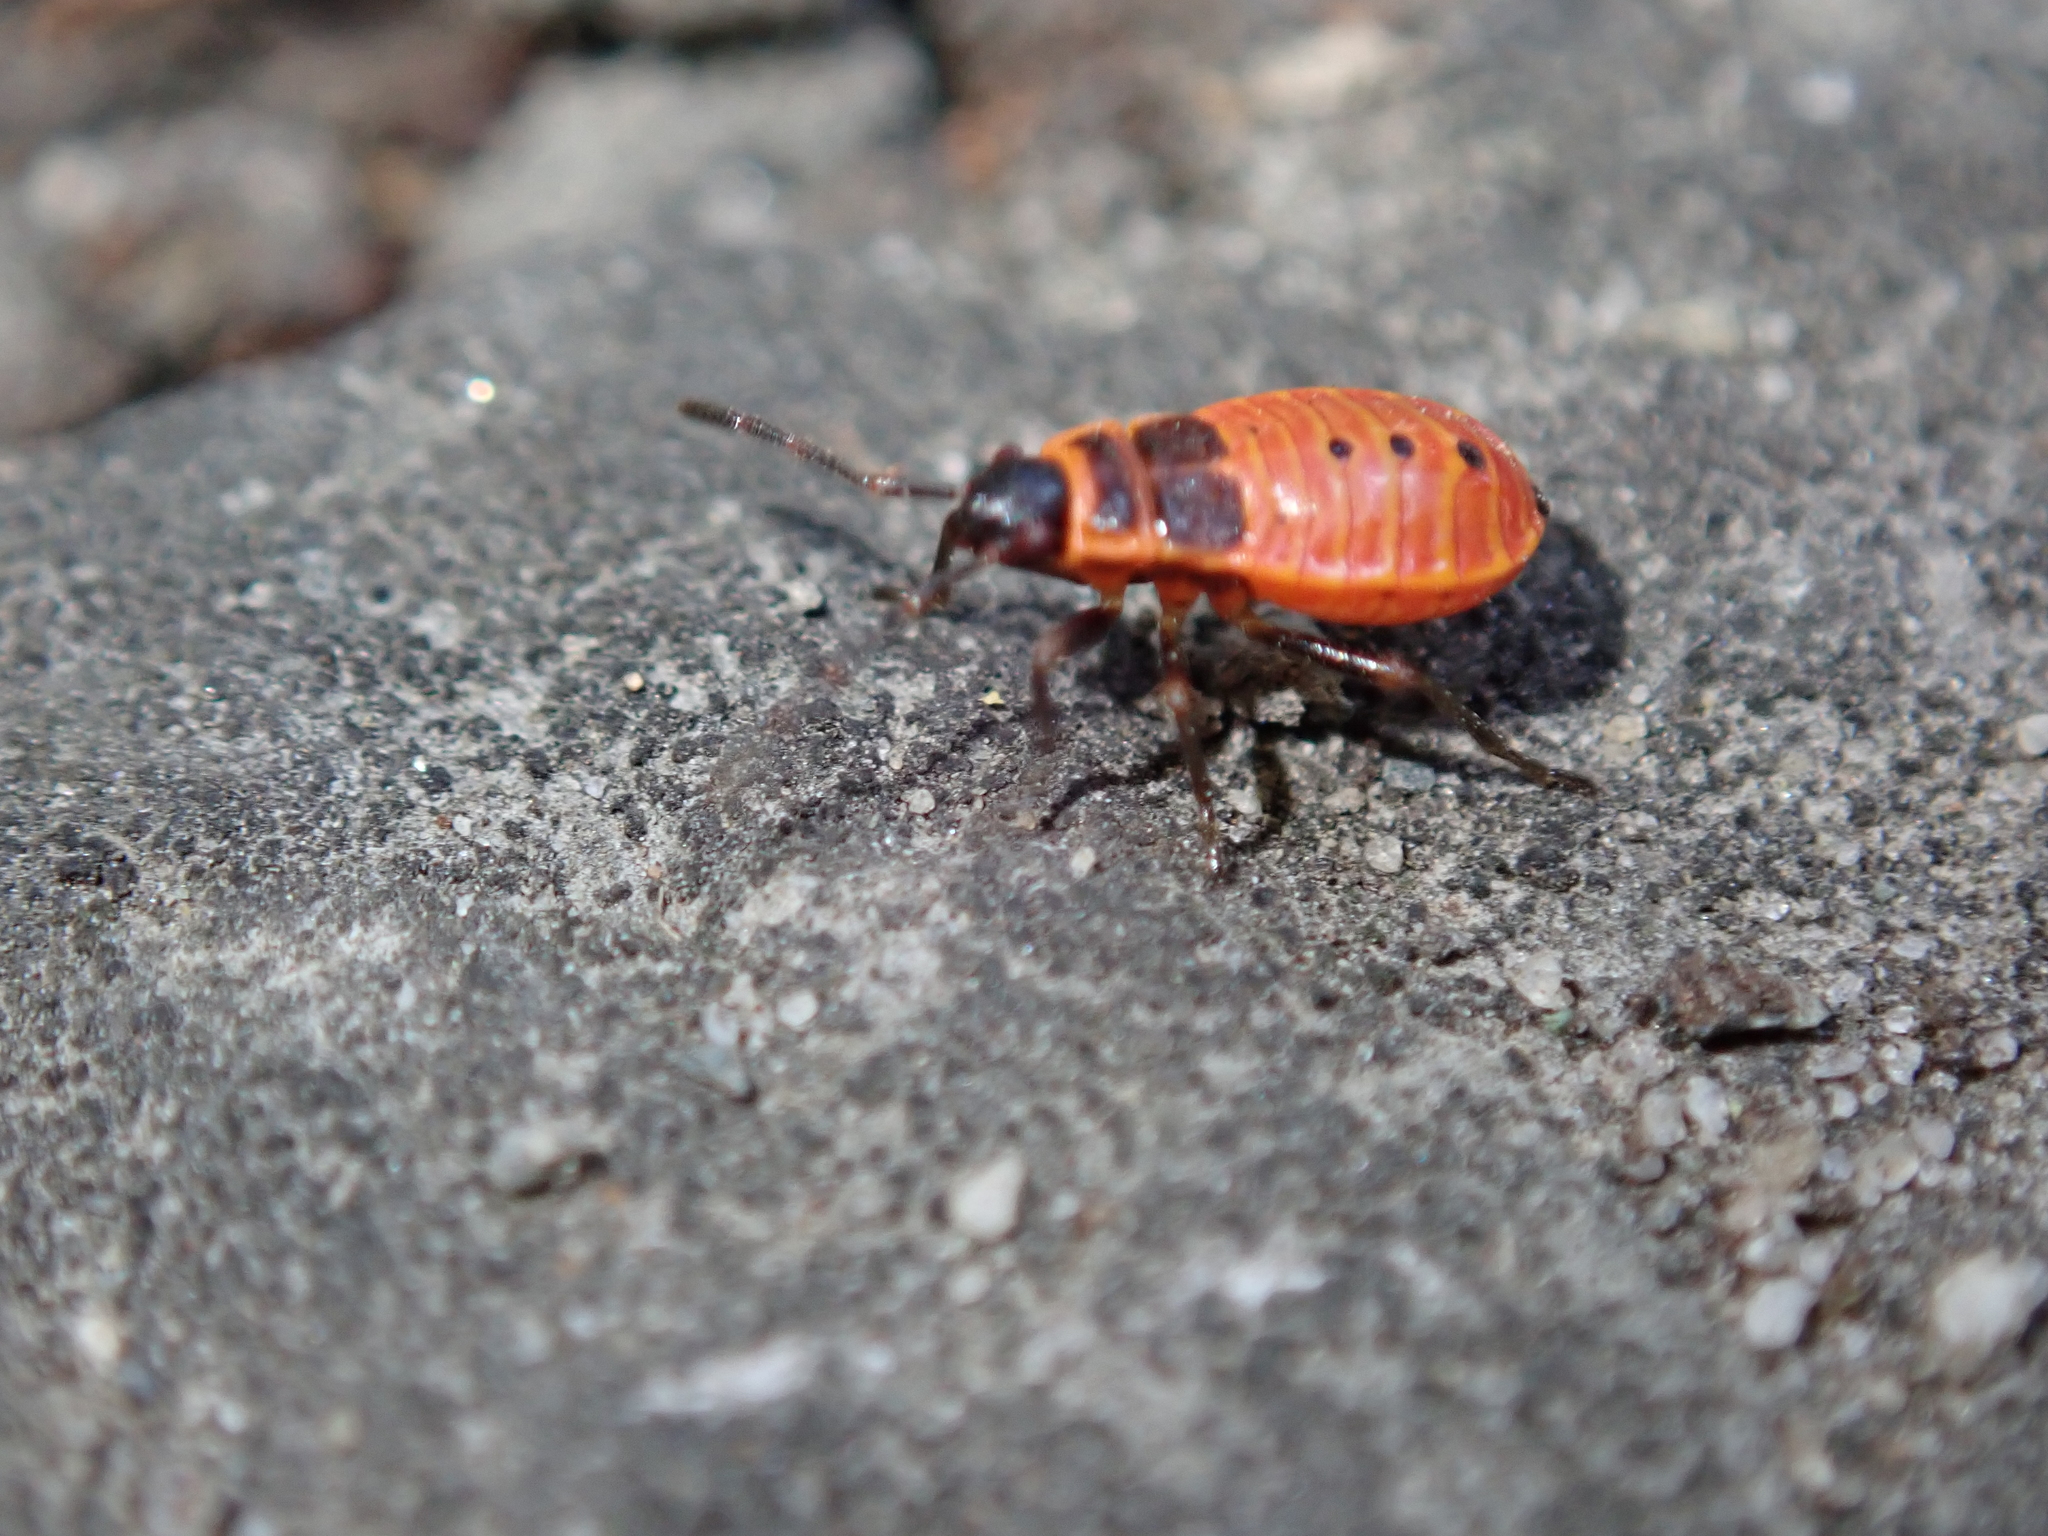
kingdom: Animalia
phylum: Arthropoda
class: Insecta
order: Hemiptera
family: Pyrrhocoridae
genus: Pyrrhocoris
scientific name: Pyrrhocoris apterus
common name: Firebug
